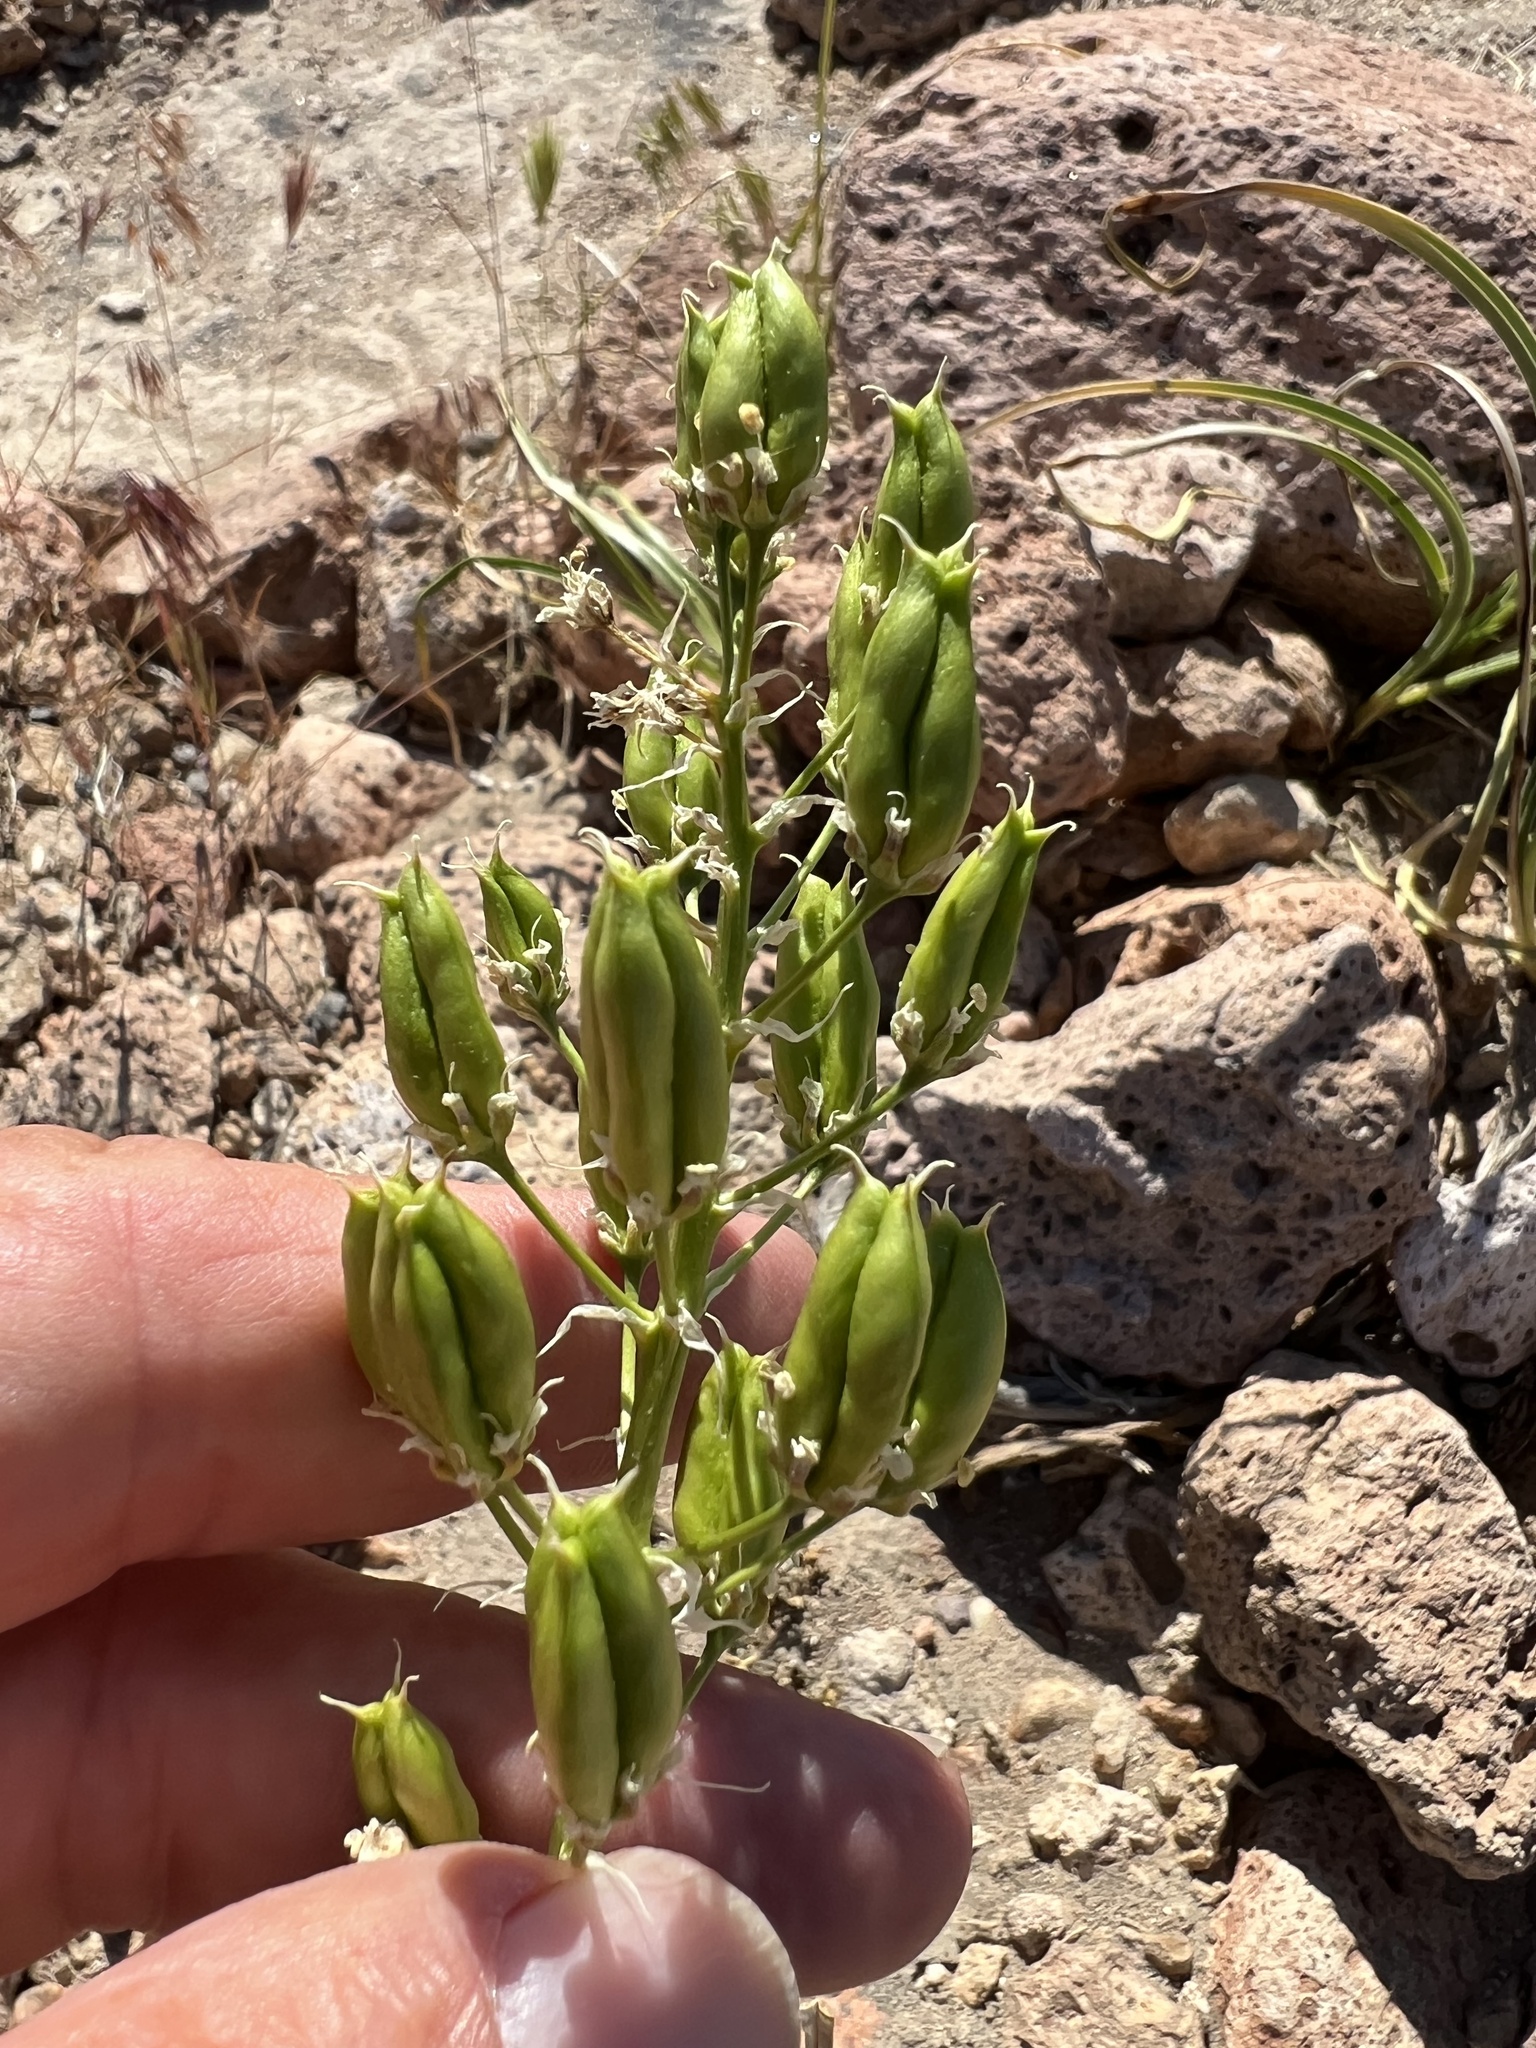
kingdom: Plantae
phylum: Tracheophyta
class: Liliopsida
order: Liliales
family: Melanthiaceae
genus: Toxicoscordion
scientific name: Toxicoscordion paniculatum
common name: Foothill death camas
